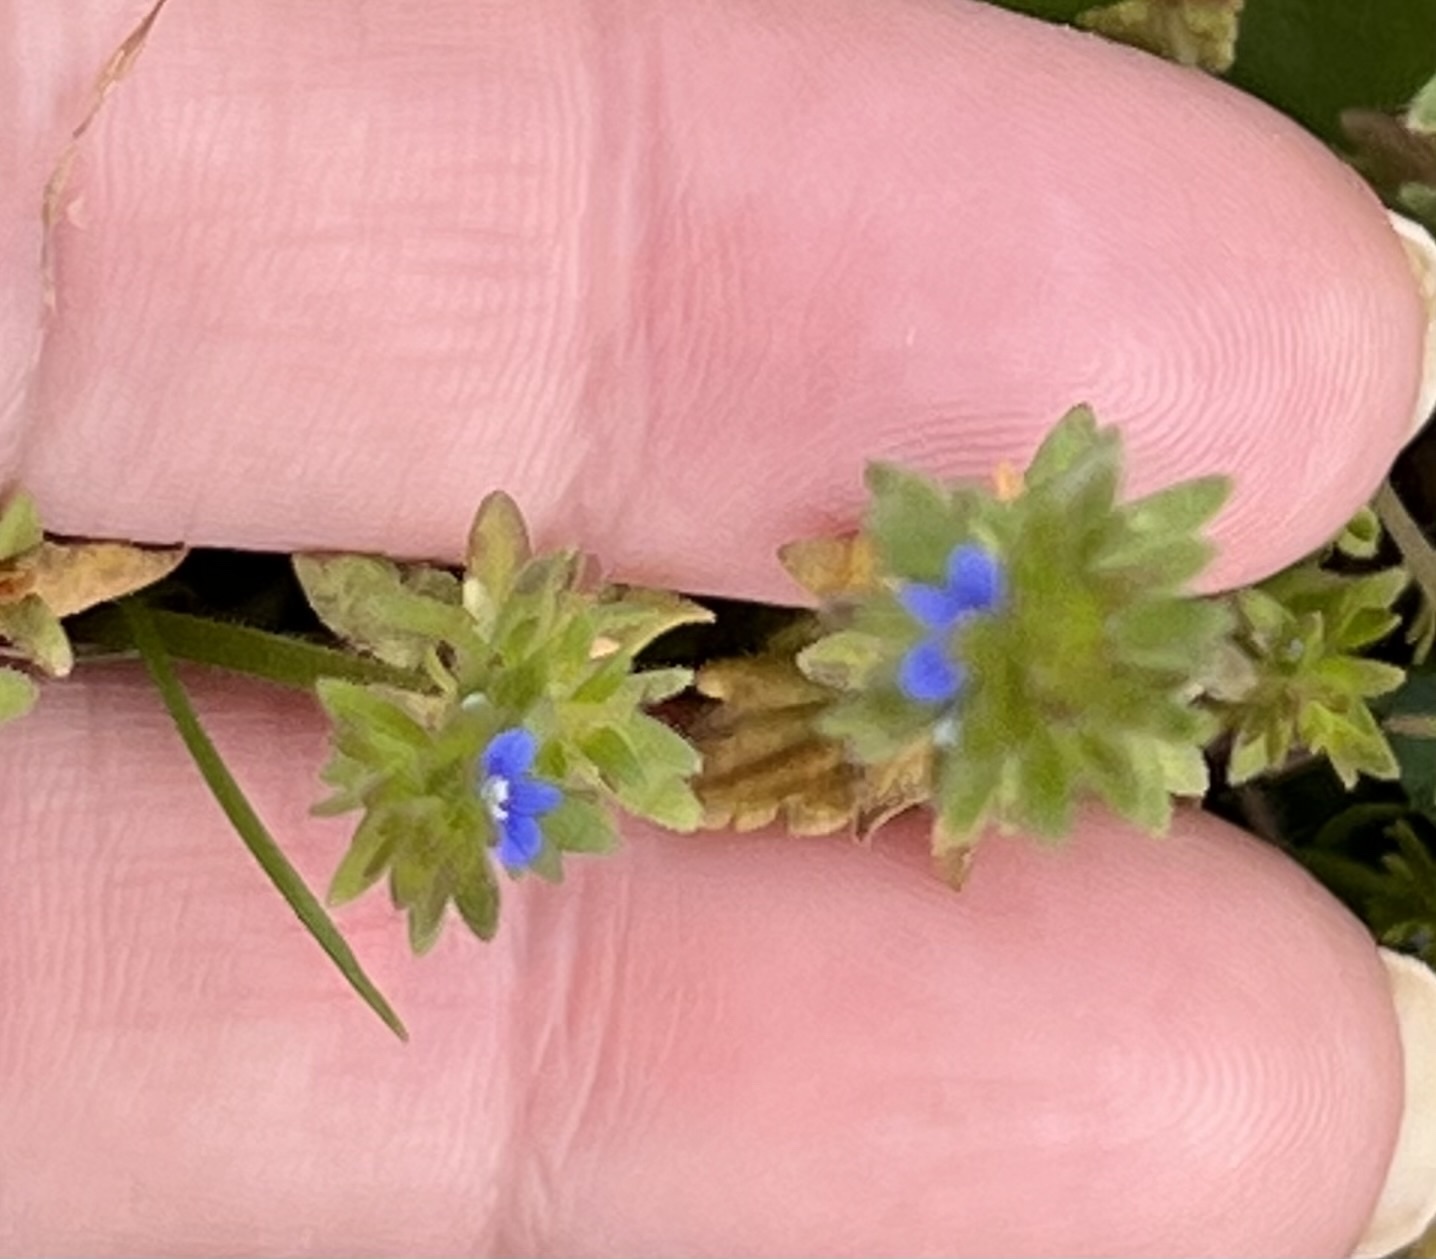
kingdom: Plantae
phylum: Tracheophyta
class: Magnoliopsida
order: Lamiales
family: Plantaginaceae
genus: Veronica
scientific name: Veronica arvensis
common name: Corn speedwell
